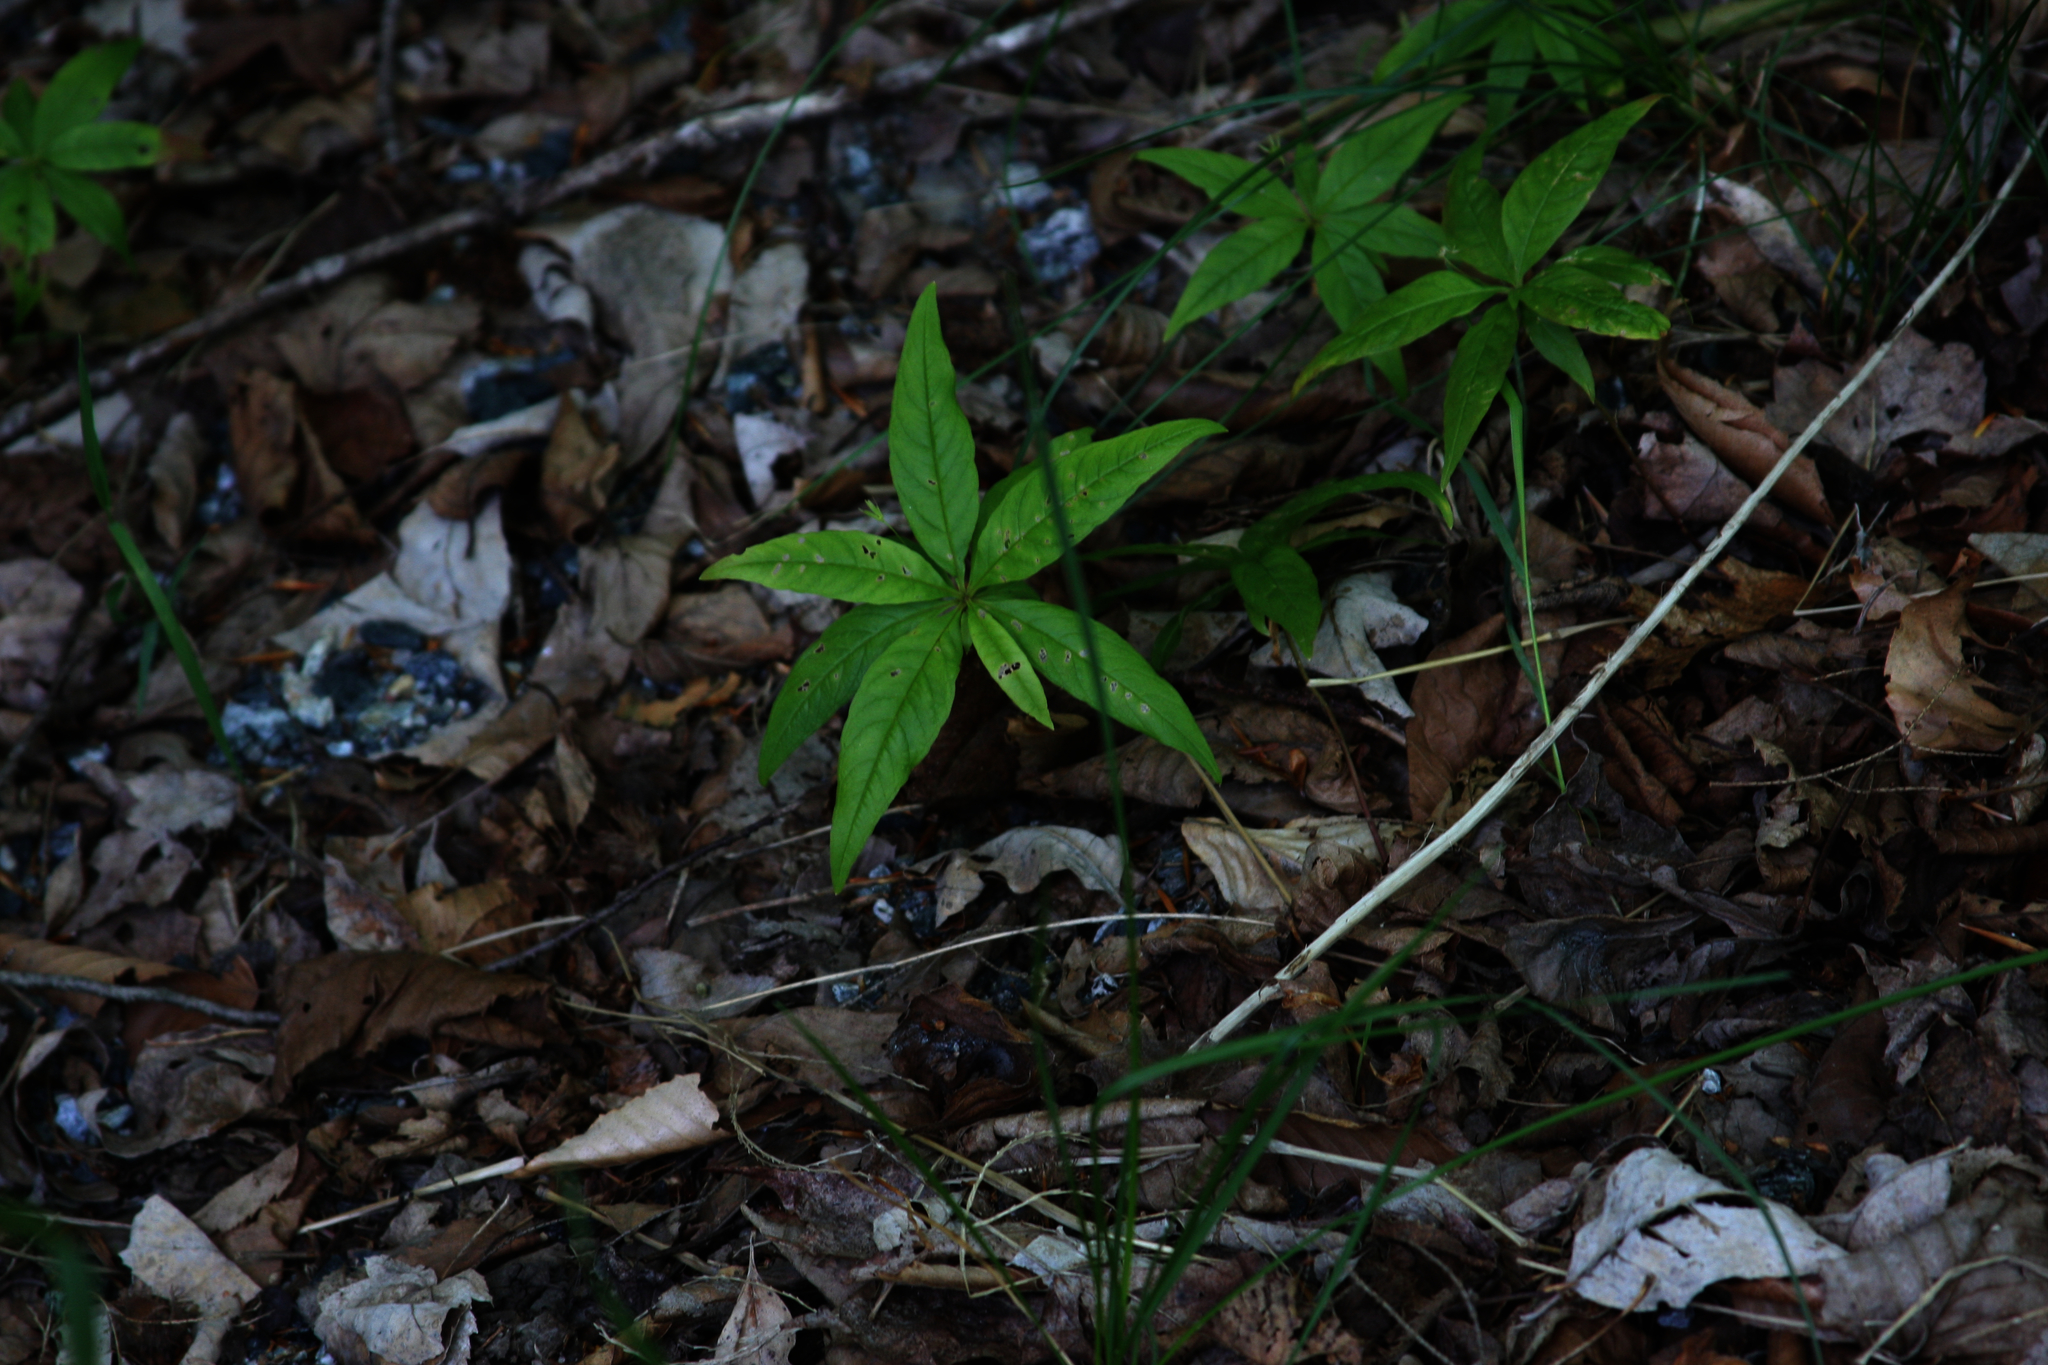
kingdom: Plantae
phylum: Tracheophyta
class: Magnoliopsida
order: Ericales
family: Primulaceae
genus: Lysimachia
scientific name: Lysimachia borealis
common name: American starflower
